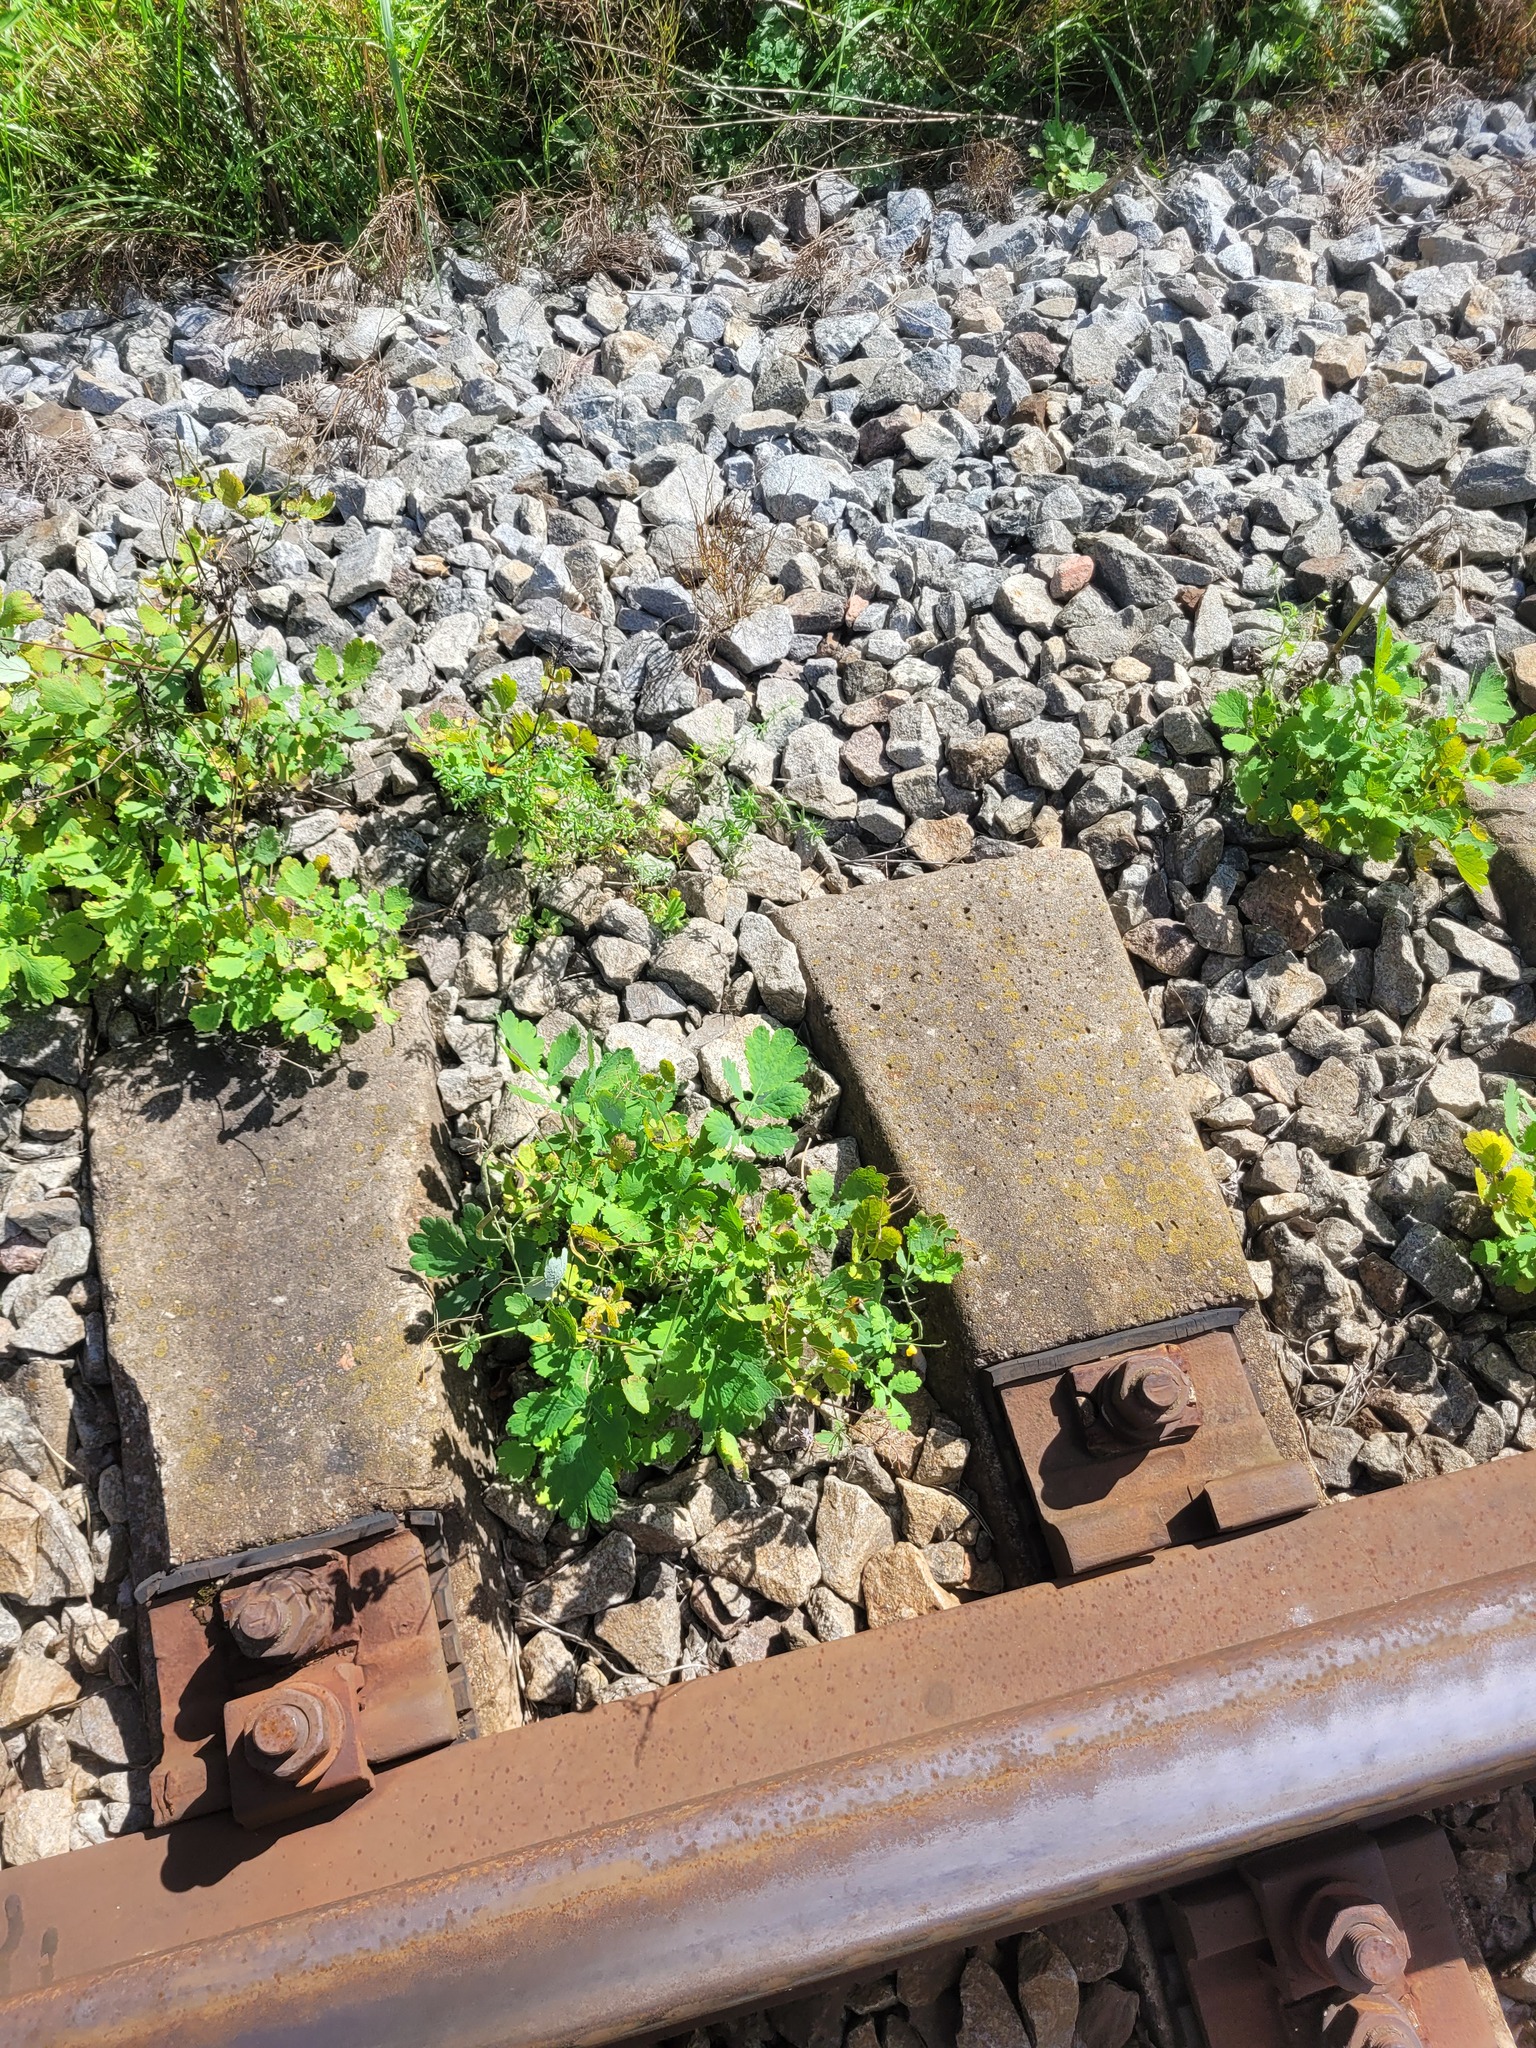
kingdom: Plantae
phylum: Tracheophyta
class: Magnoliopsida
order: Ranunculales
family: Papaveraceae
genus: Chelidonium
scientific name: Chelidonium majus
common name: Greater celandine
